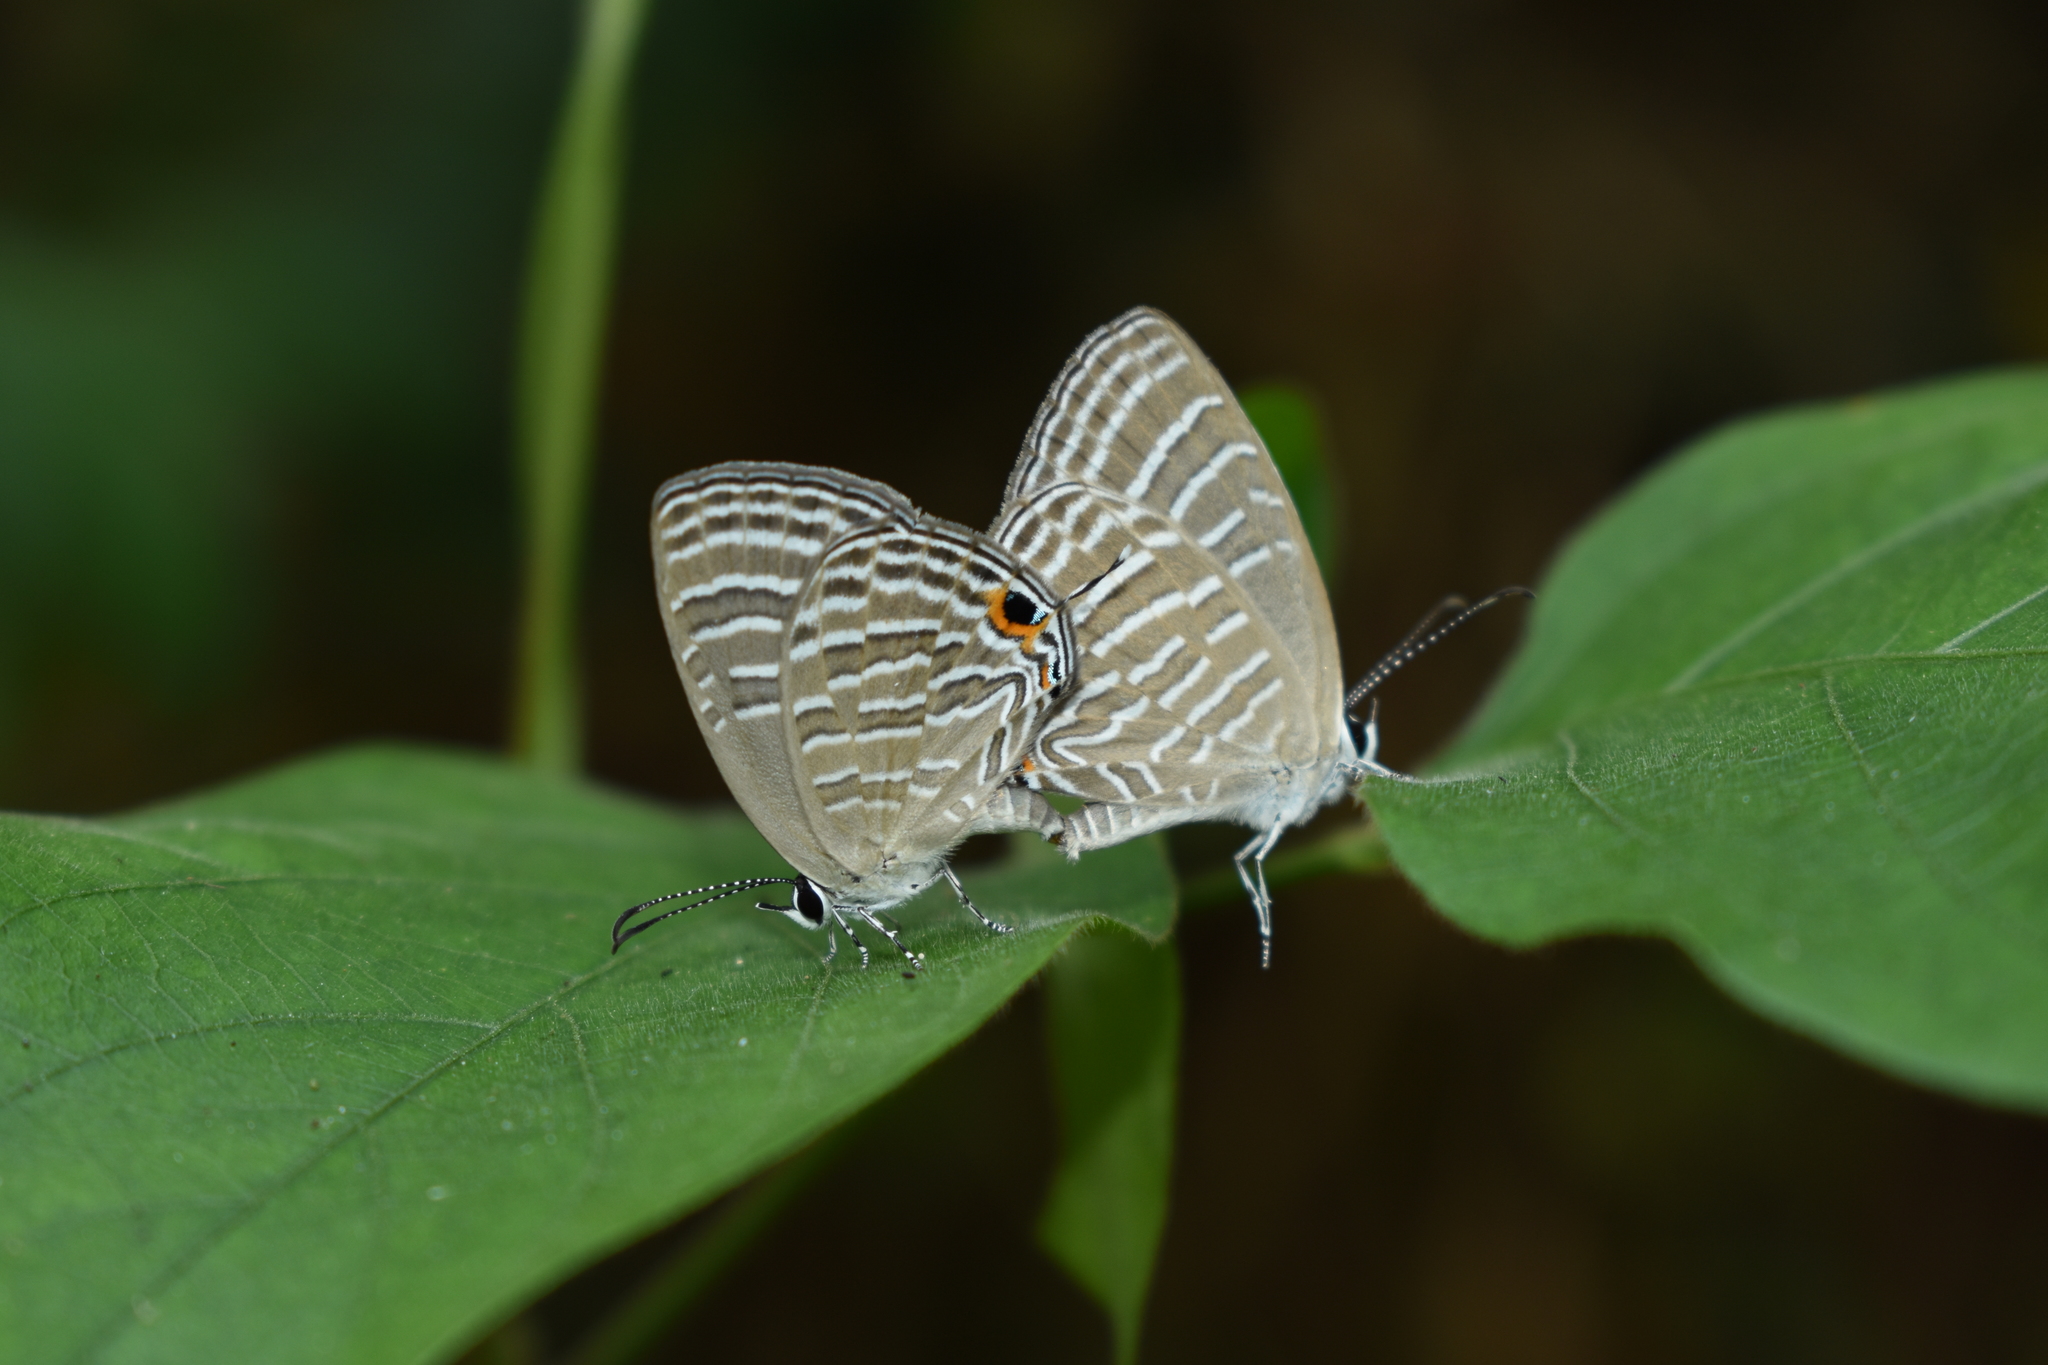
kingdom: Animalia
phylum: Arthropoda
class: Insecta
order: Lepidoptera
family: Lycaenidae
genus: Jamides
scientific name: Jamides celeno
